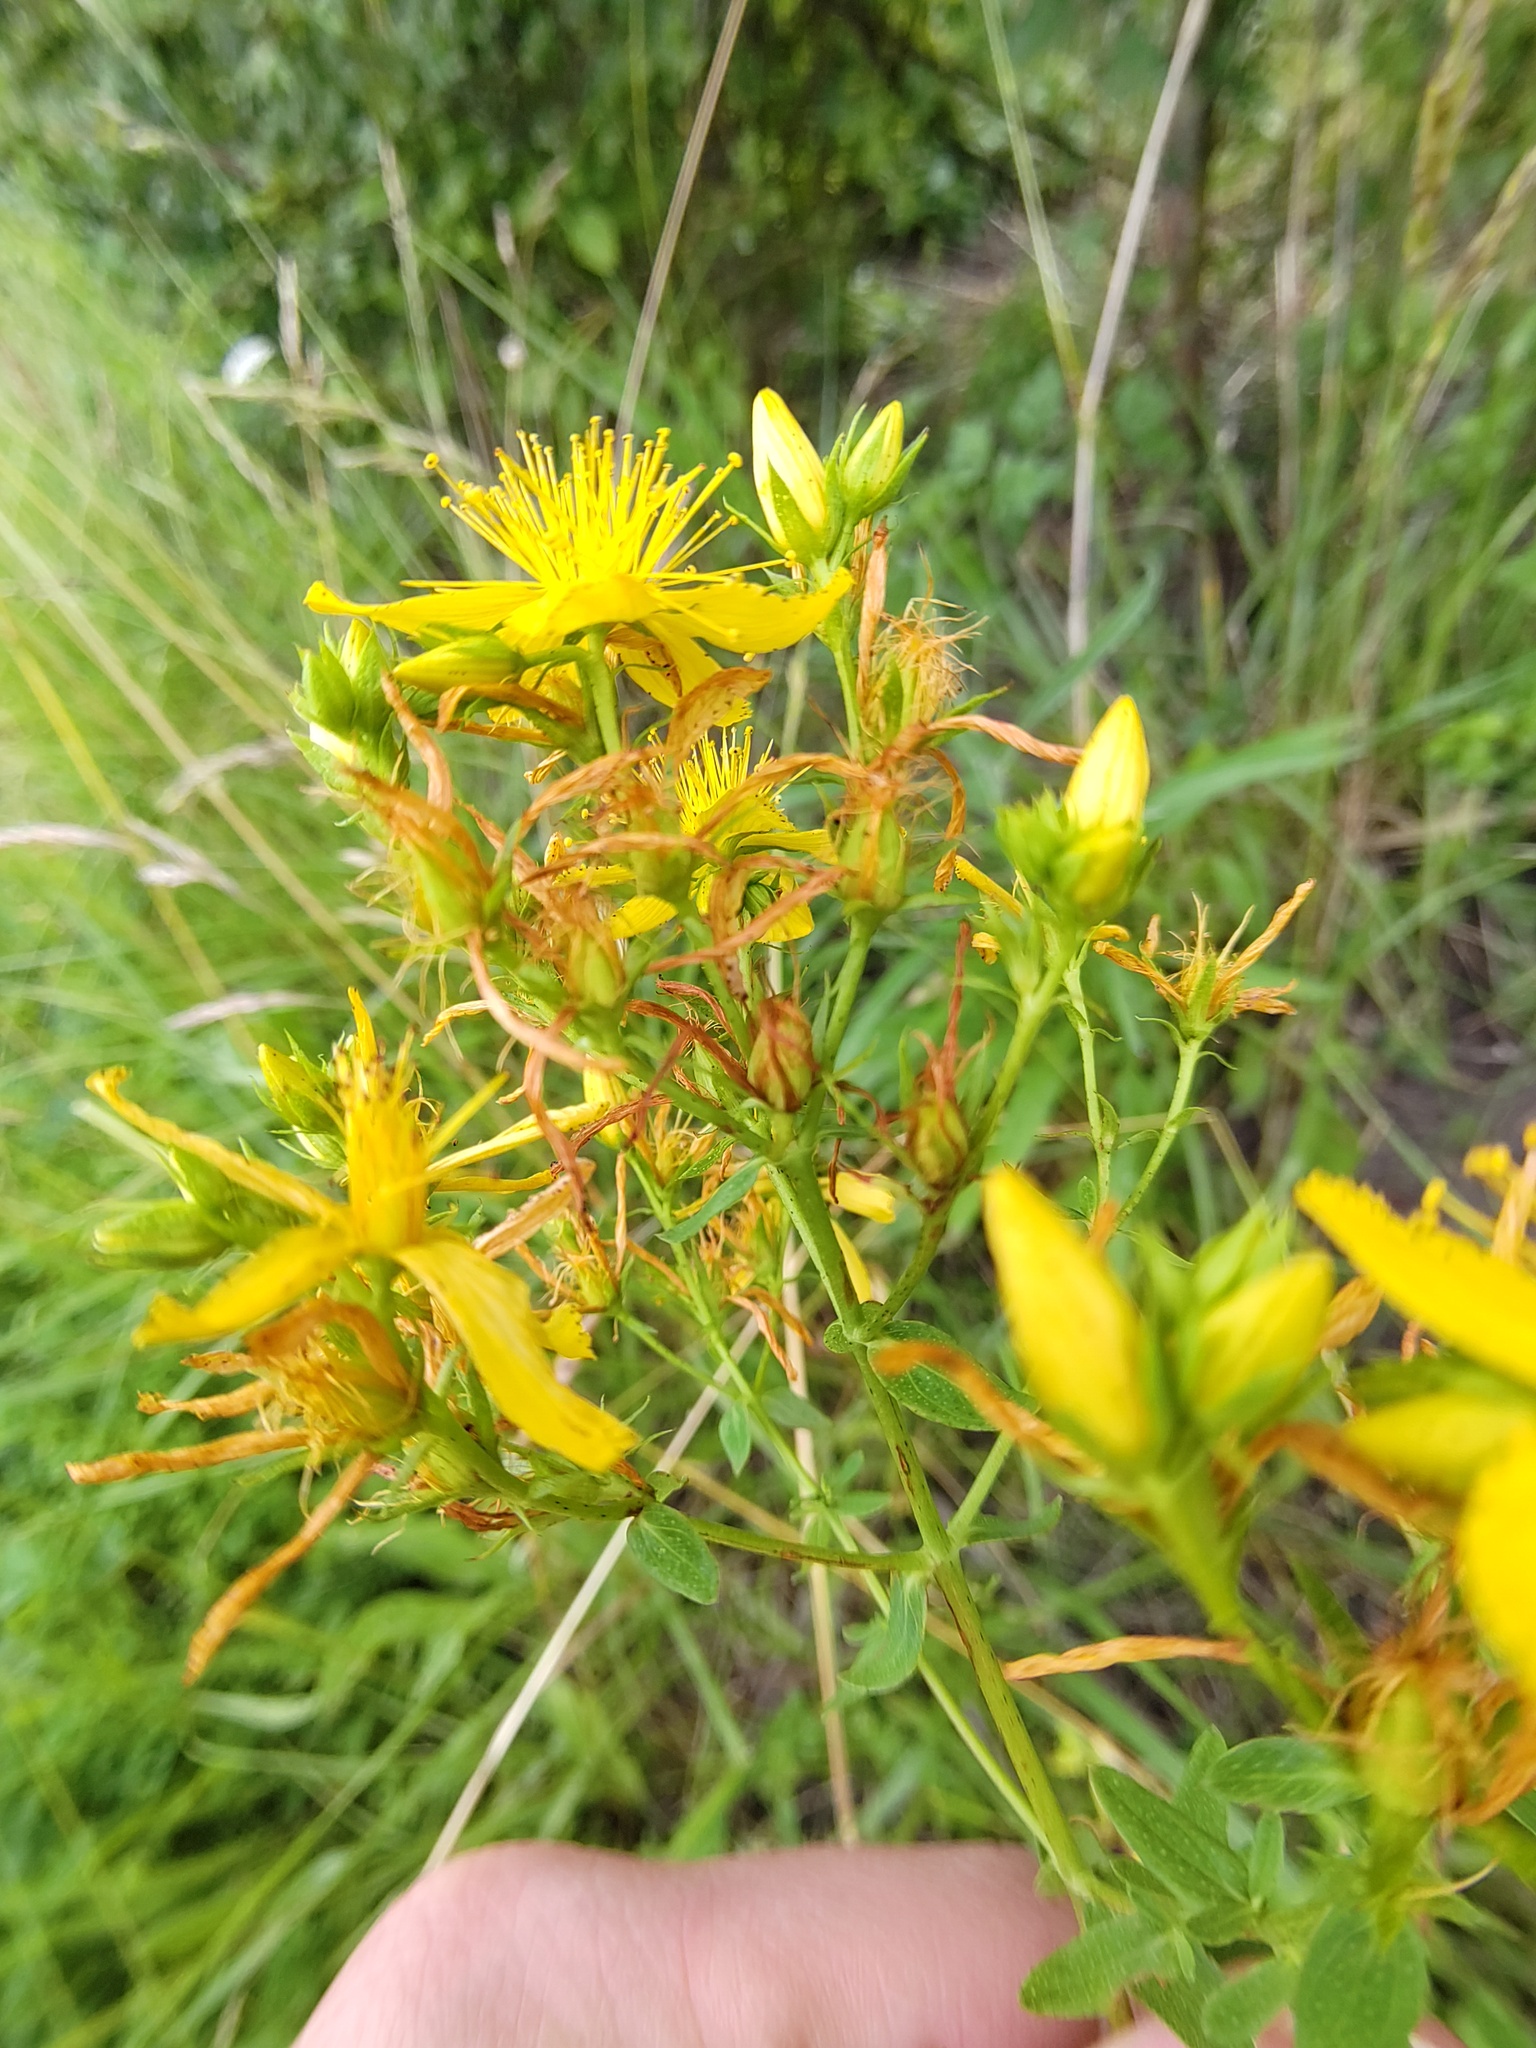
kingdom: Plantae
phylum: Tracheophyta
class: Magnoliopsida
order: Malpighiales
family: Hypericaceae
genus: Hypericum
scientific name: Hypericum perforatum
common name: Common st. johnswort
